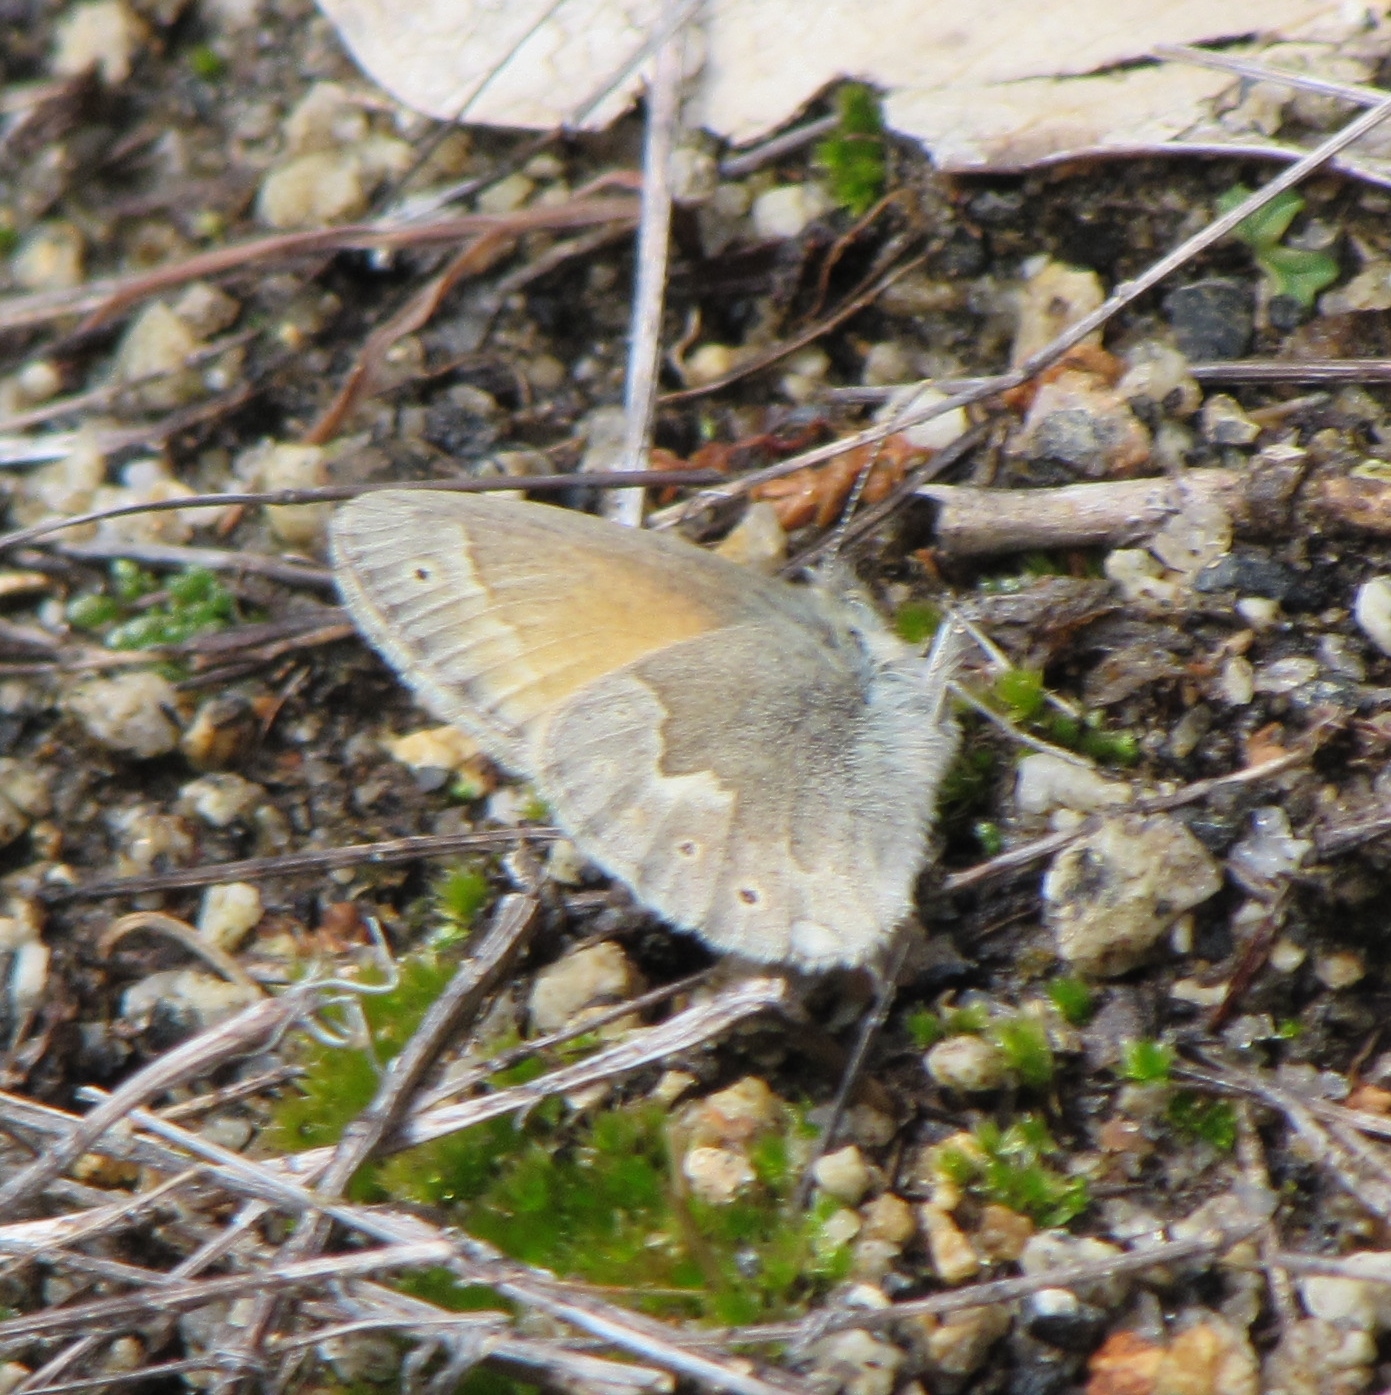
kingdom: Animalia
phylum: Arthropoda
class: Insecta
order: Lepidoptera
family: Nymphalidae
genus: Coenonympha
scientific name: Coenonympha california
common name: Common ringlet
